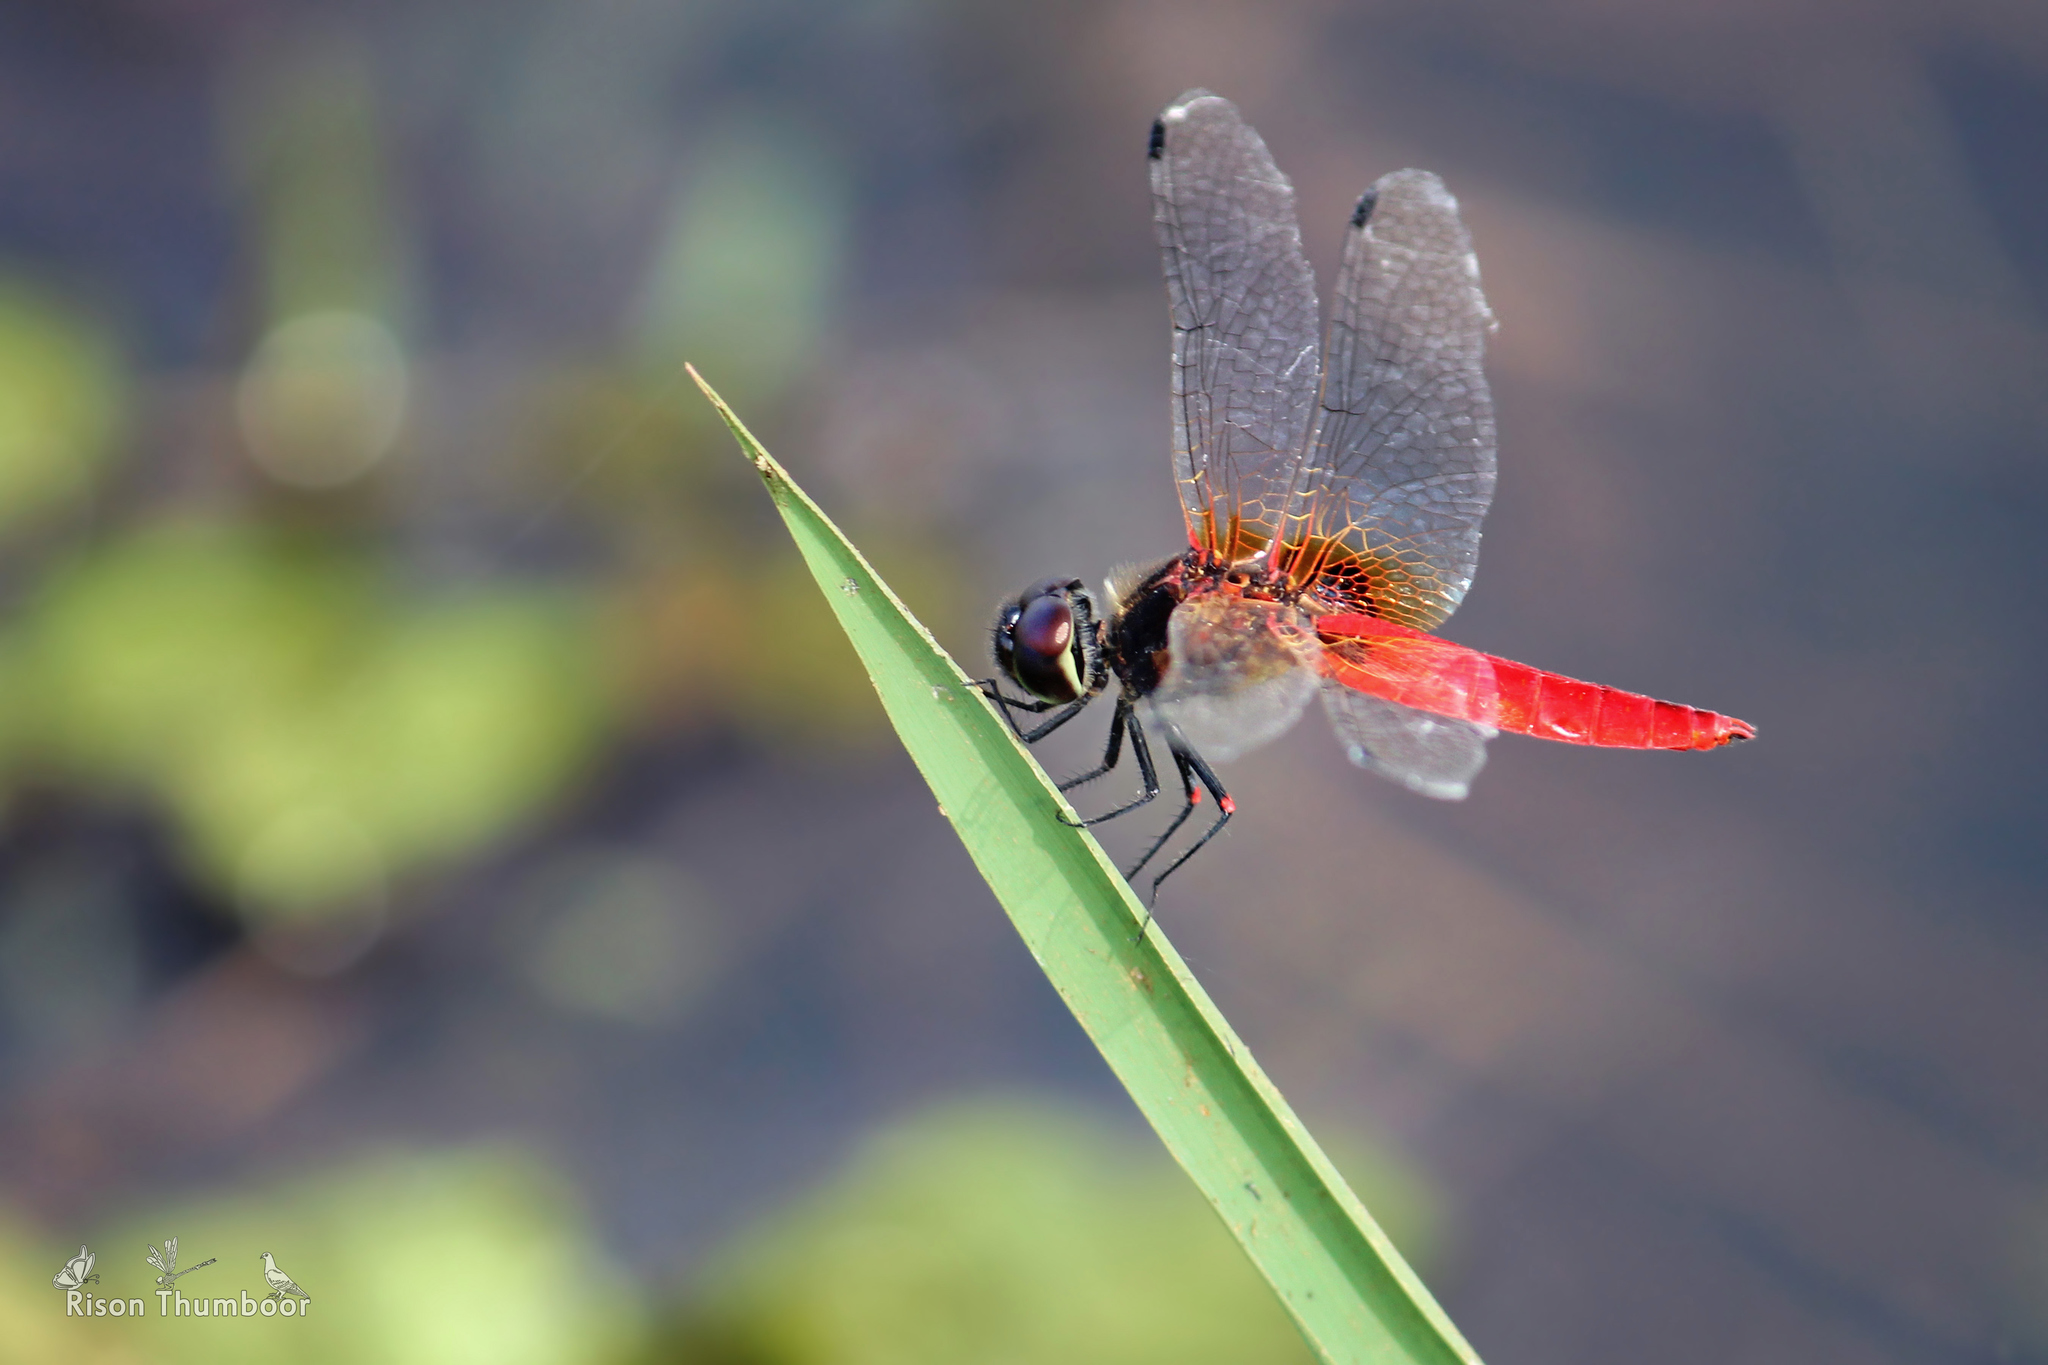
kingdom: Animalia
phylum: Arthropoda
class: Insecta
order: Odonata
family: Libellulidae
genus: Aethriamanta
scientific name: Aethriamanta brevipennis
